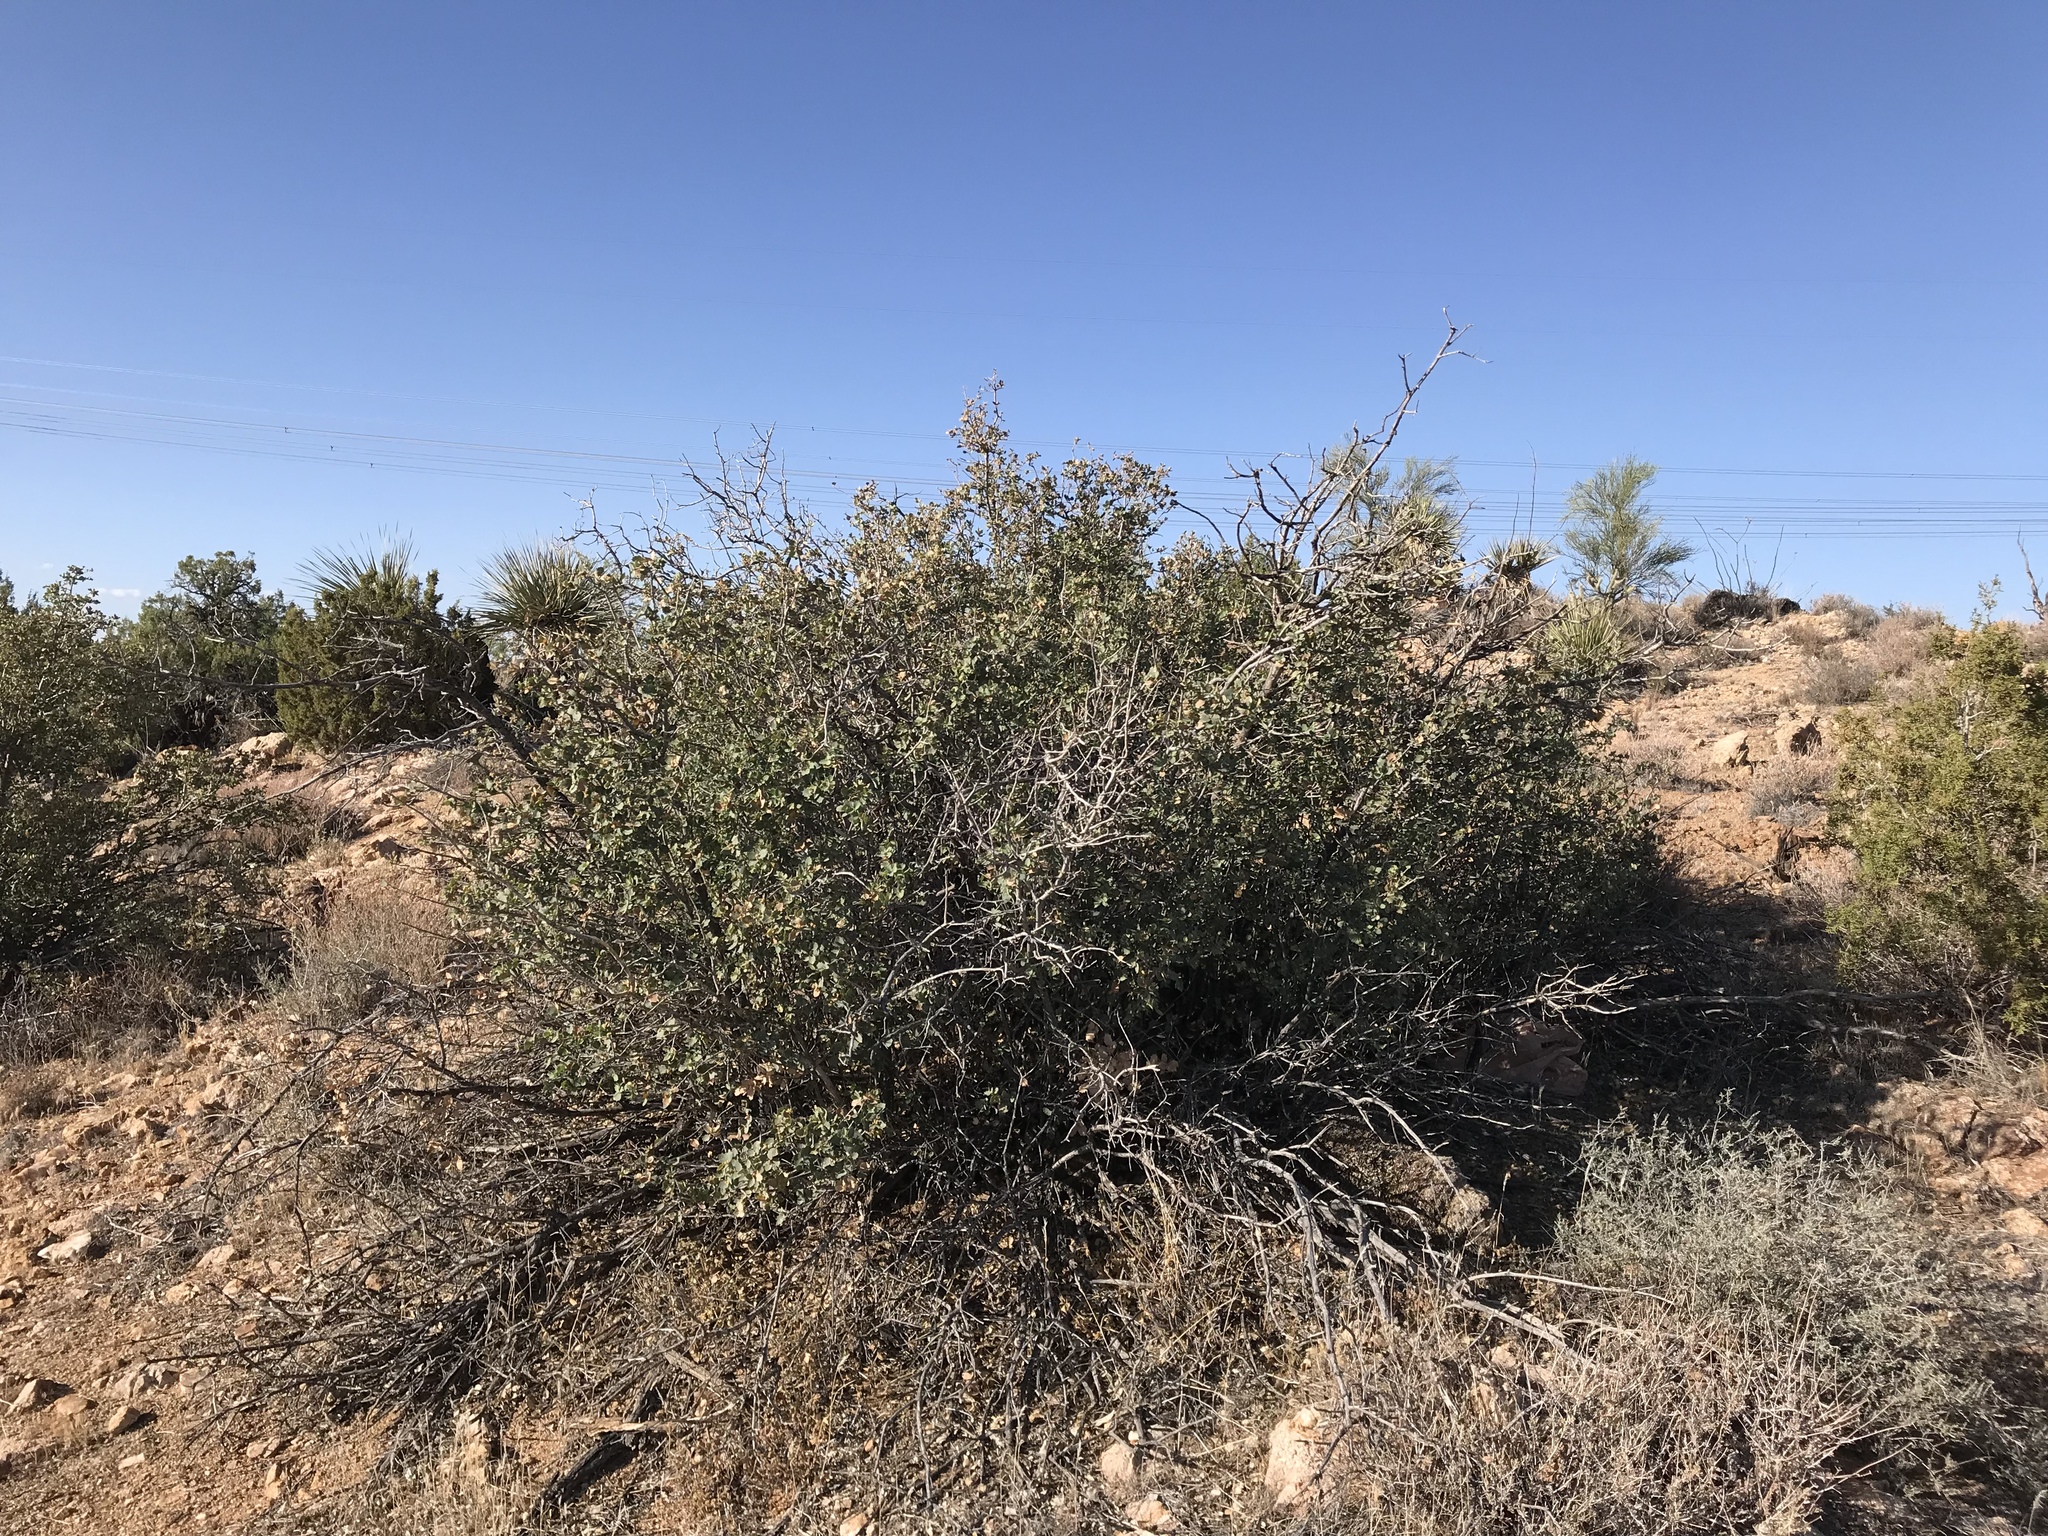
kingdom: Plantae
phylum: Tracheophyta
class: Magnoliopsida
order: Fagales
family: Fagaceae
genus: Quercus
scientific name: Quercus turbinella
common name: Sonoran scrub oak
